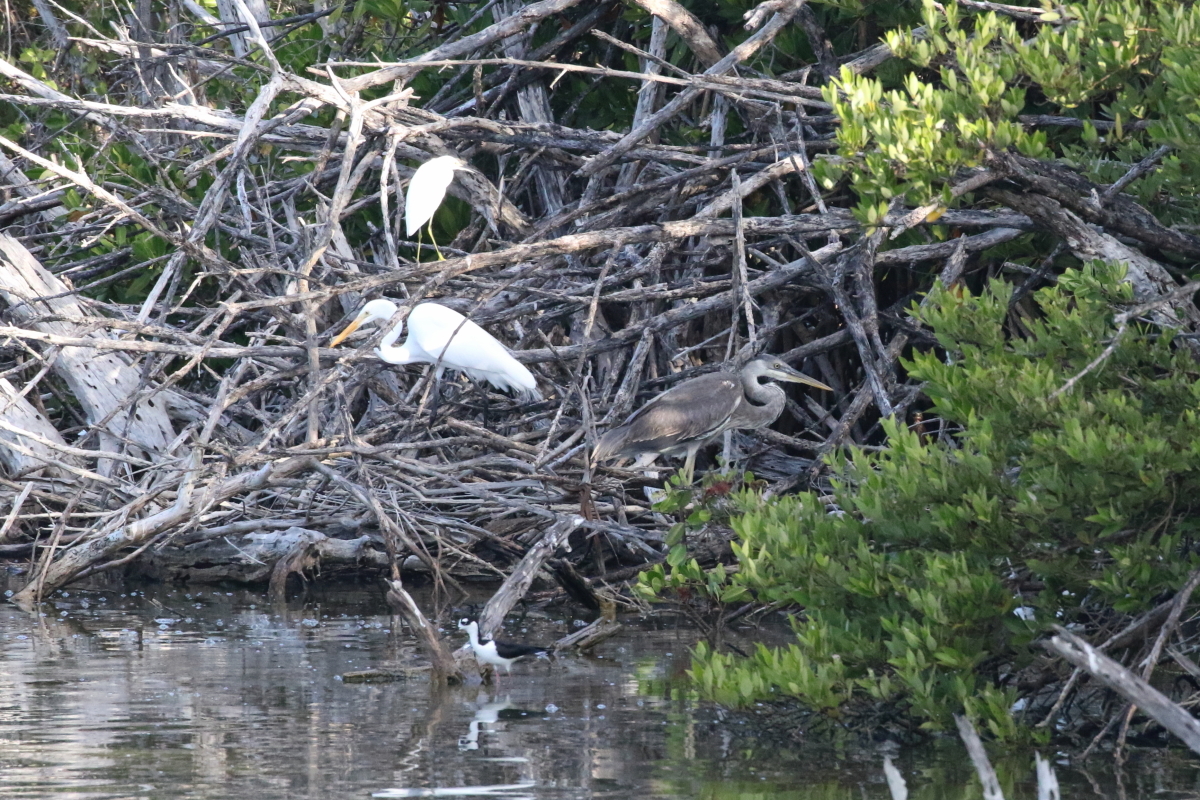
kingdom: Animalia
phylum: Chordata
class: Aves
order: Pelecaniformes
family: Ardeidae
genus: Ardea
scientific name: Ardea alba
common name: Great egret
